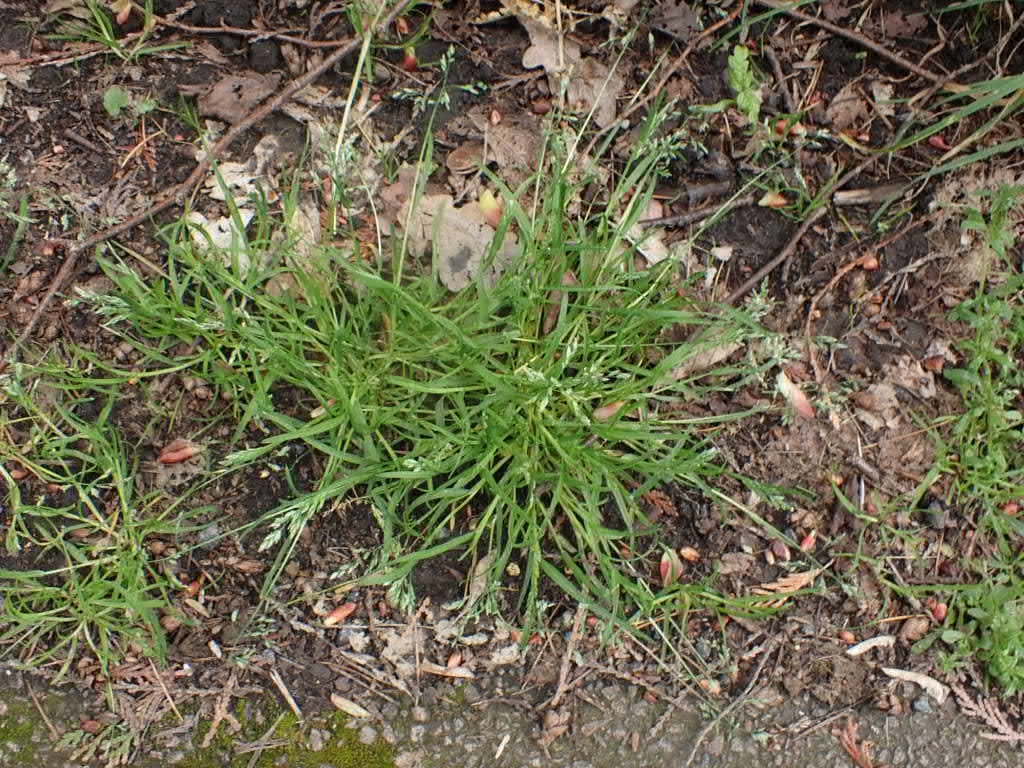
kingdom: Plantae
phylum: Tracheophyta
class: Liliopsida
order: Poales
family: Poaceae
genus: Poa
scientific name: Poa annua
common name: Annual bluegrass
